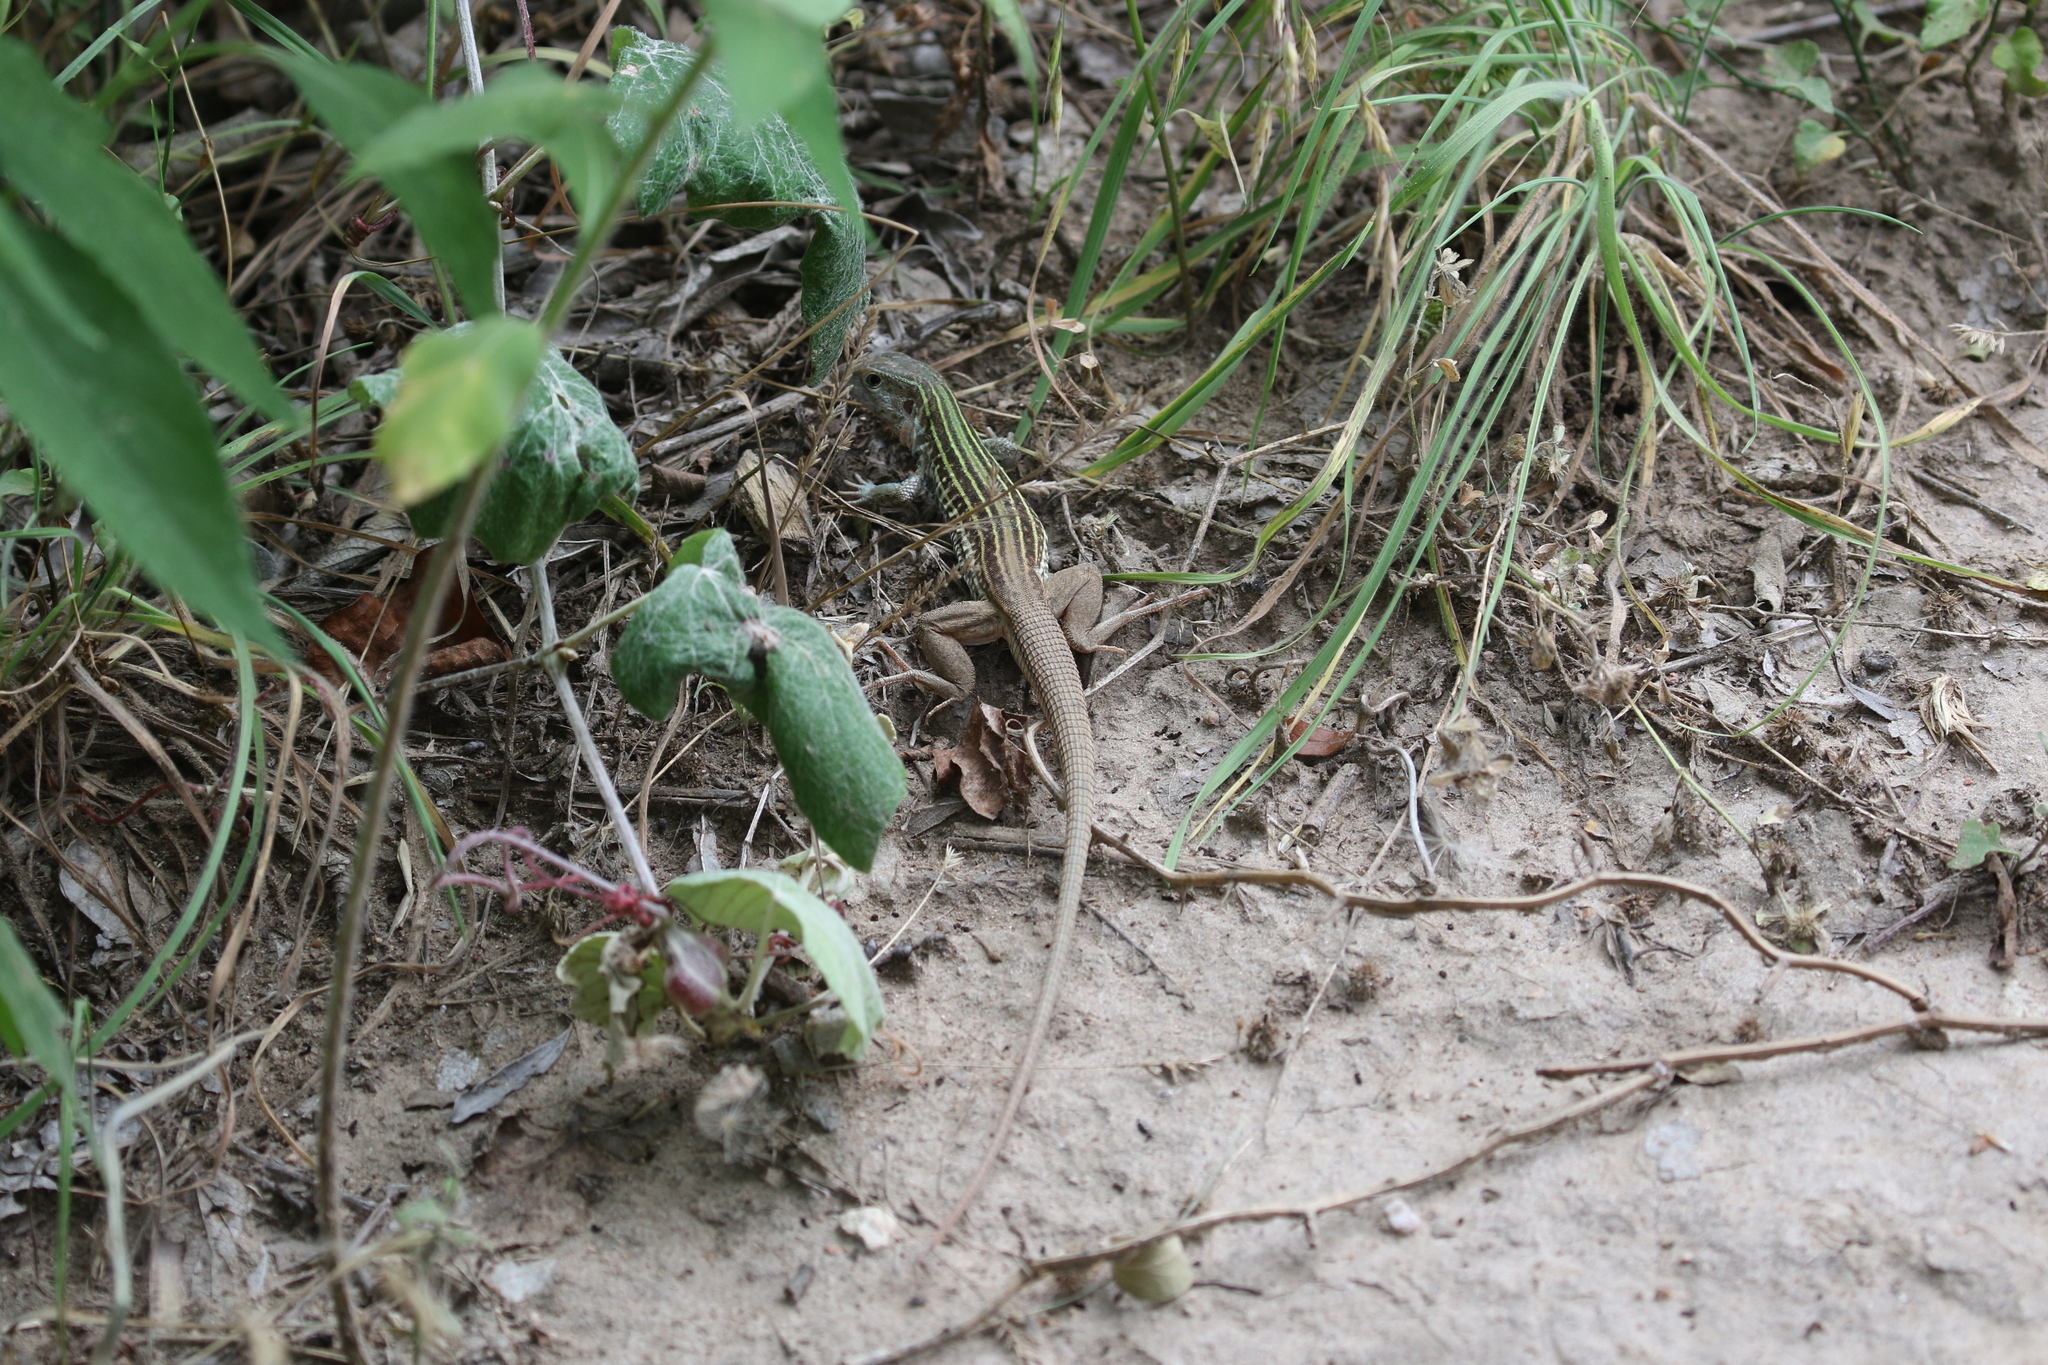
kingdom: Animalia
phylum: Chordata
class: Squamata
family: Teiidae
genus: Aspidoscelis
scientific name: Aspidoscelis gularis
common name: Eastern spotted whiptail
